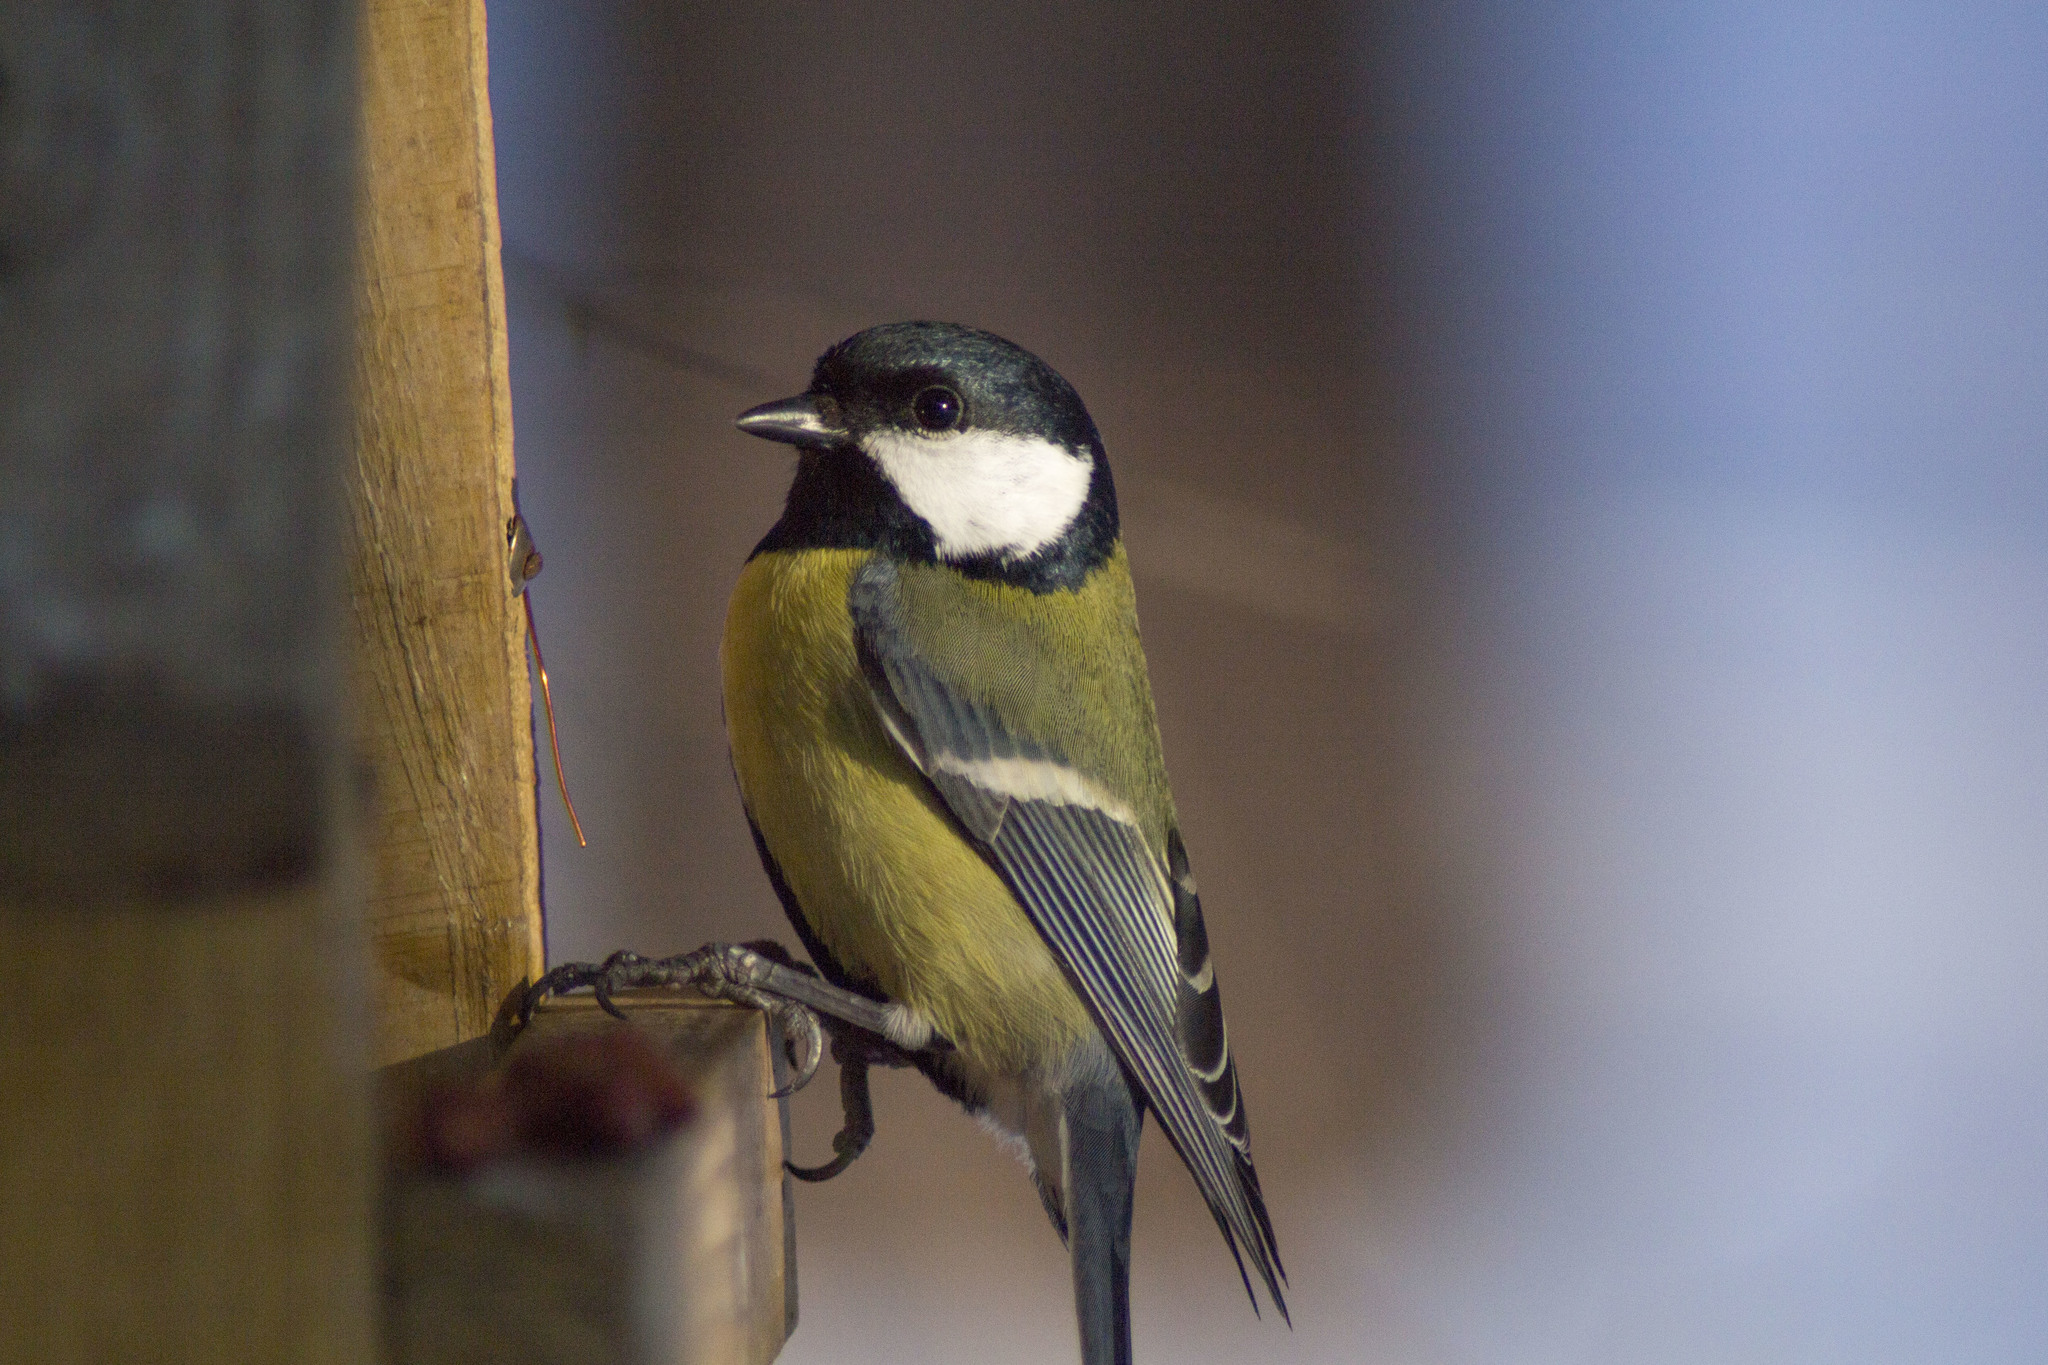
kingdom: Animalia
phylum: Chordata
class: Aves
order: Passeriformes
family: Paridae
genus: Parus
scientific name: Parus major
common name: Great tit
